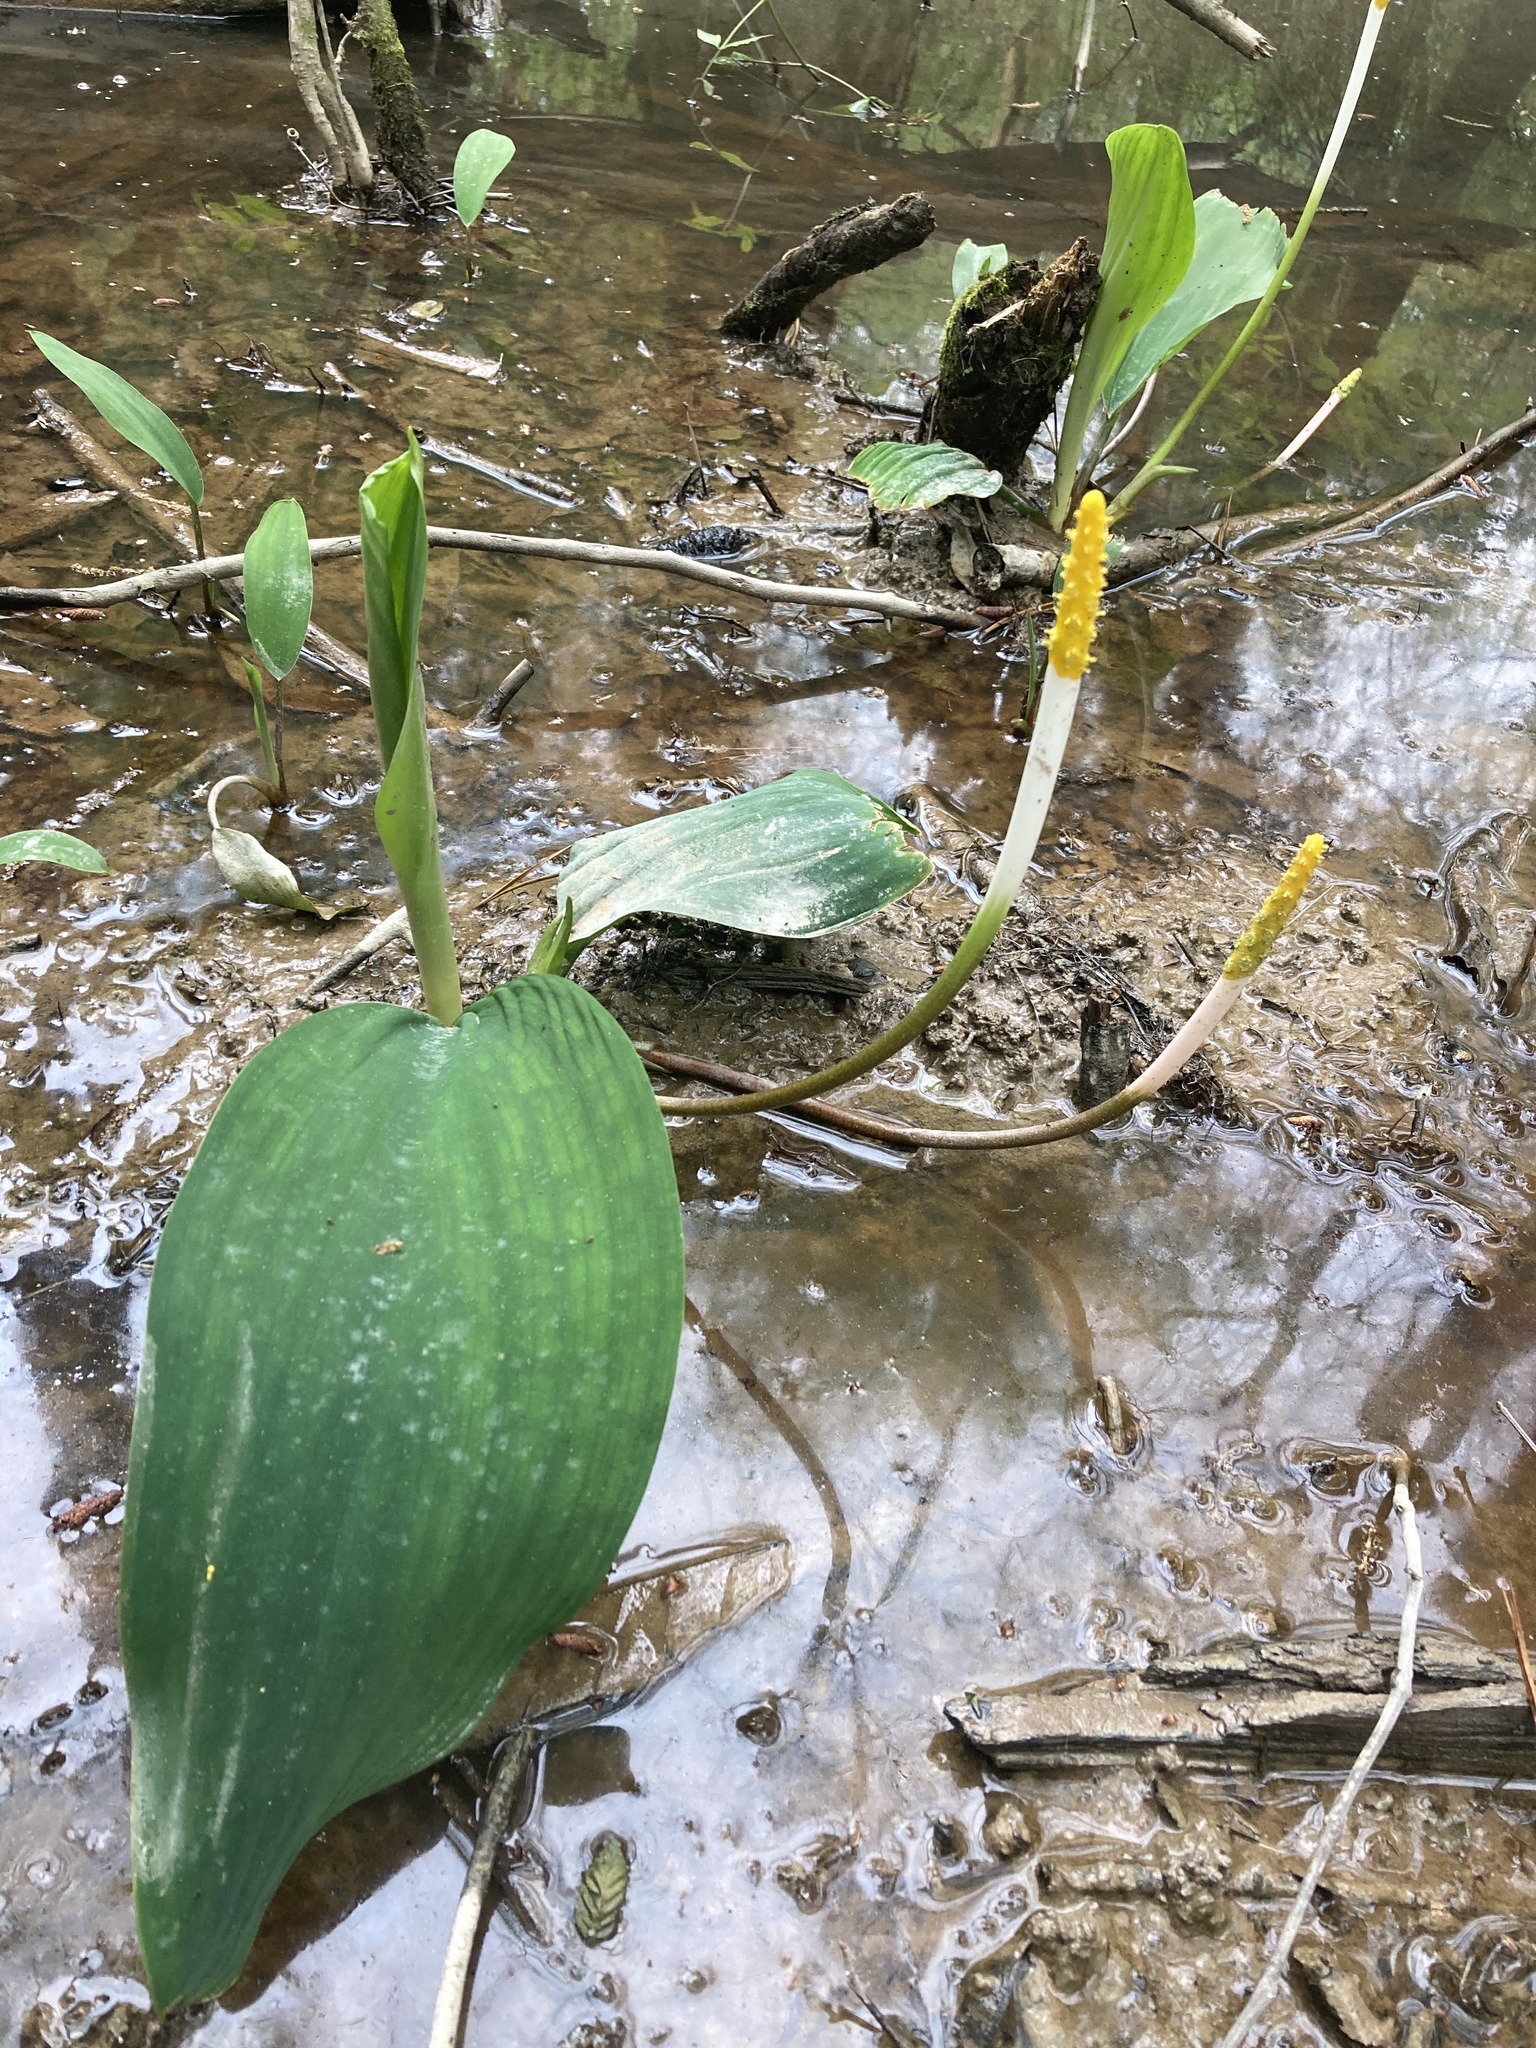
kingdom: Plantae
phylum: Tracheophyta
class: Liliopsida
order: Alismatales
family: Araceae
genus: Orontium
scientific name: Orontium aquaticum
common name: Golden-club
